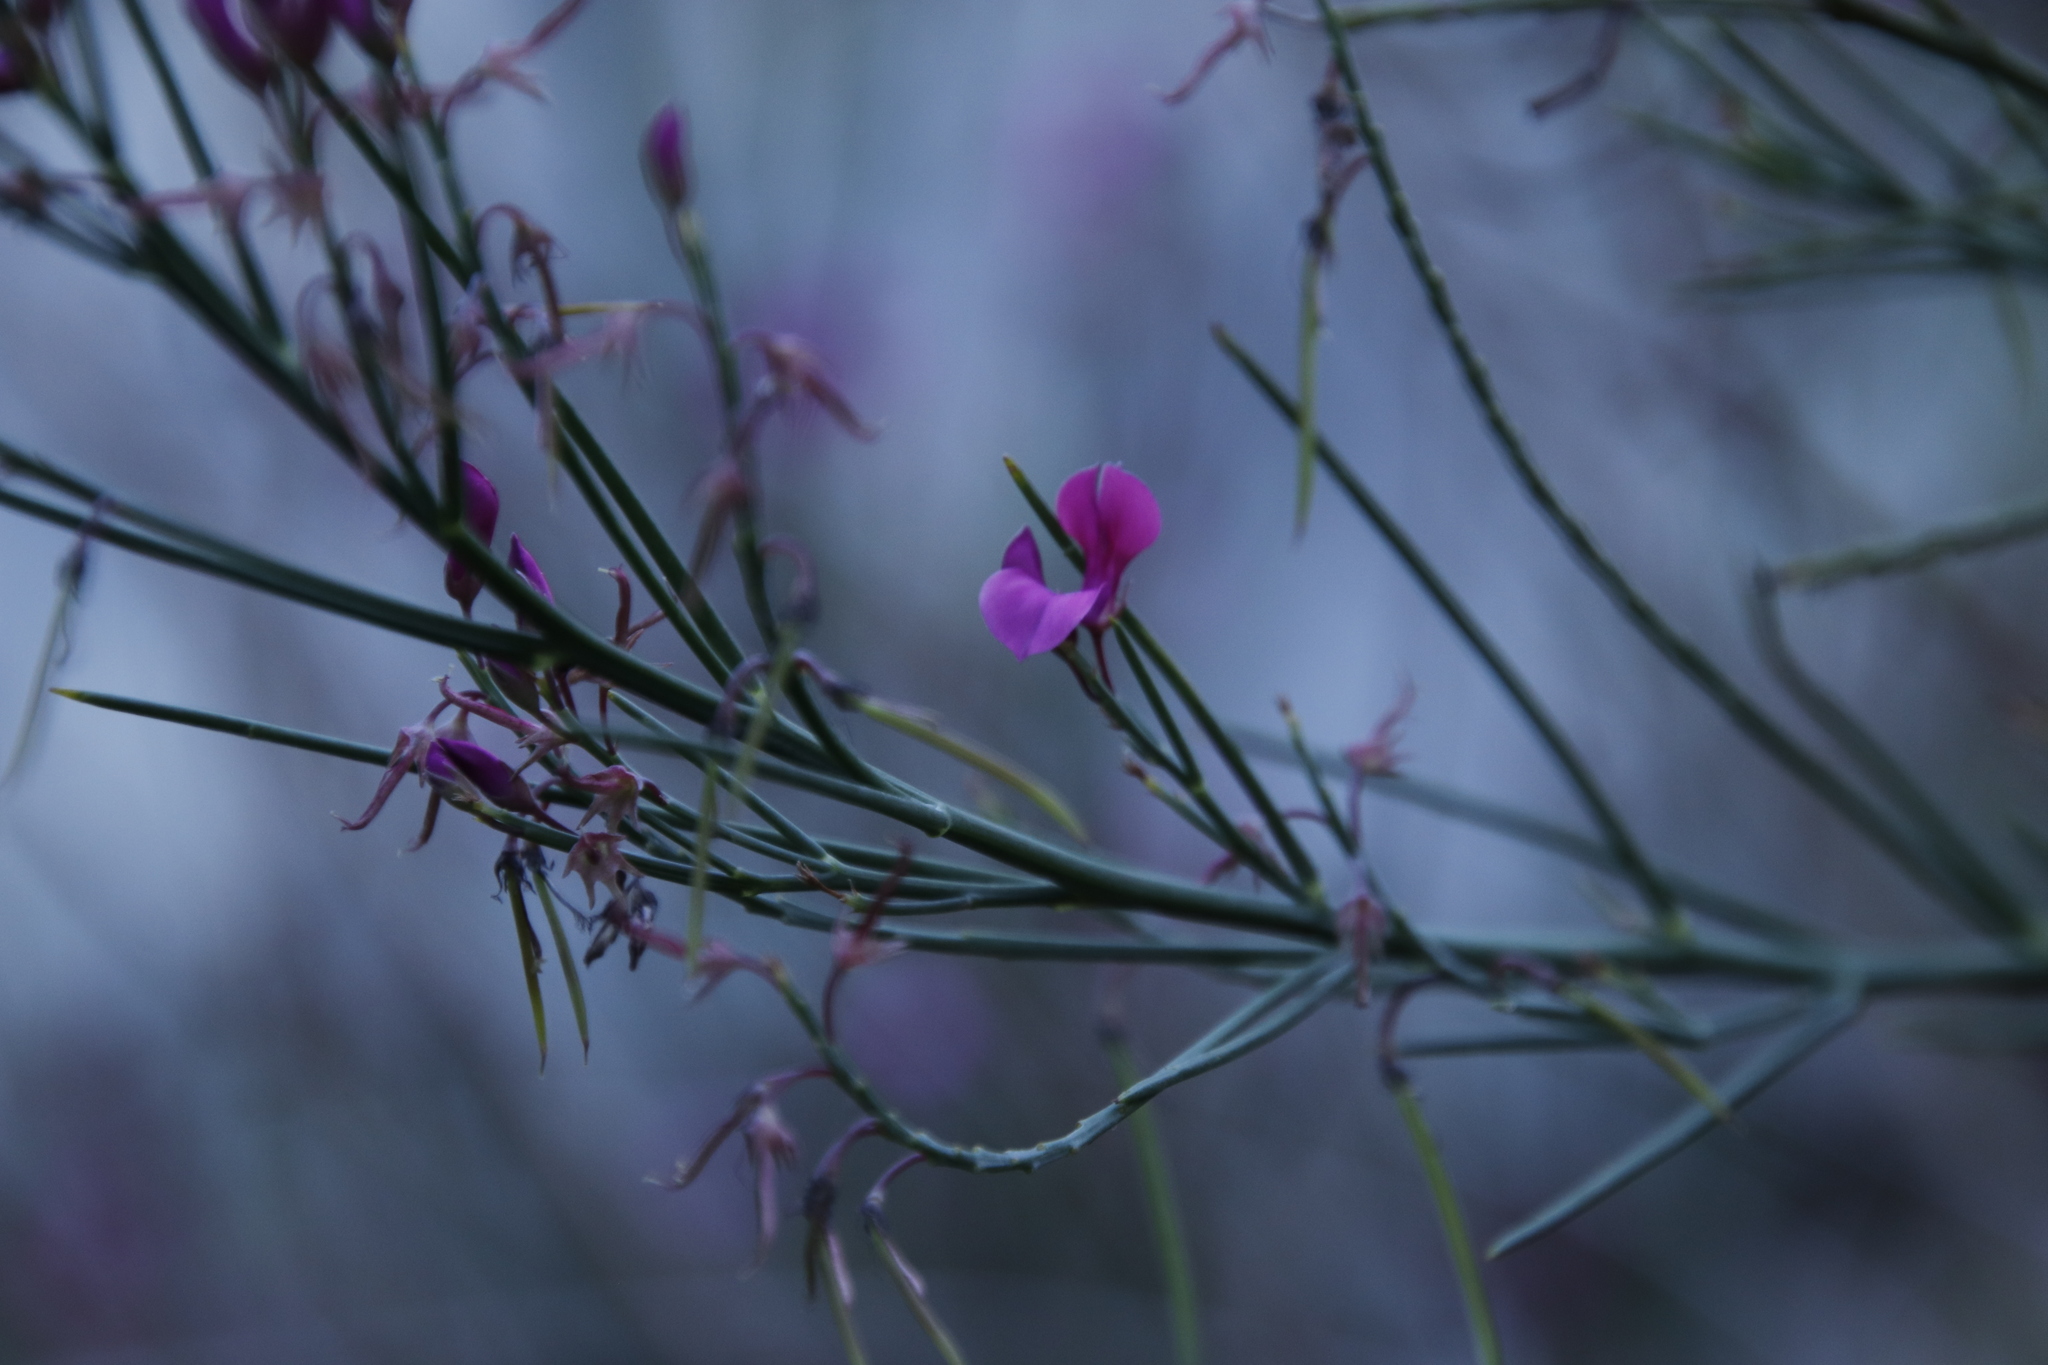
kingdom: Plantae
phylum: Tracheophyta
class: Magnoliopsida
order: Fabales
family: Fabaceae
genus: Indigofera
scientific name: Indigofera filifolia
